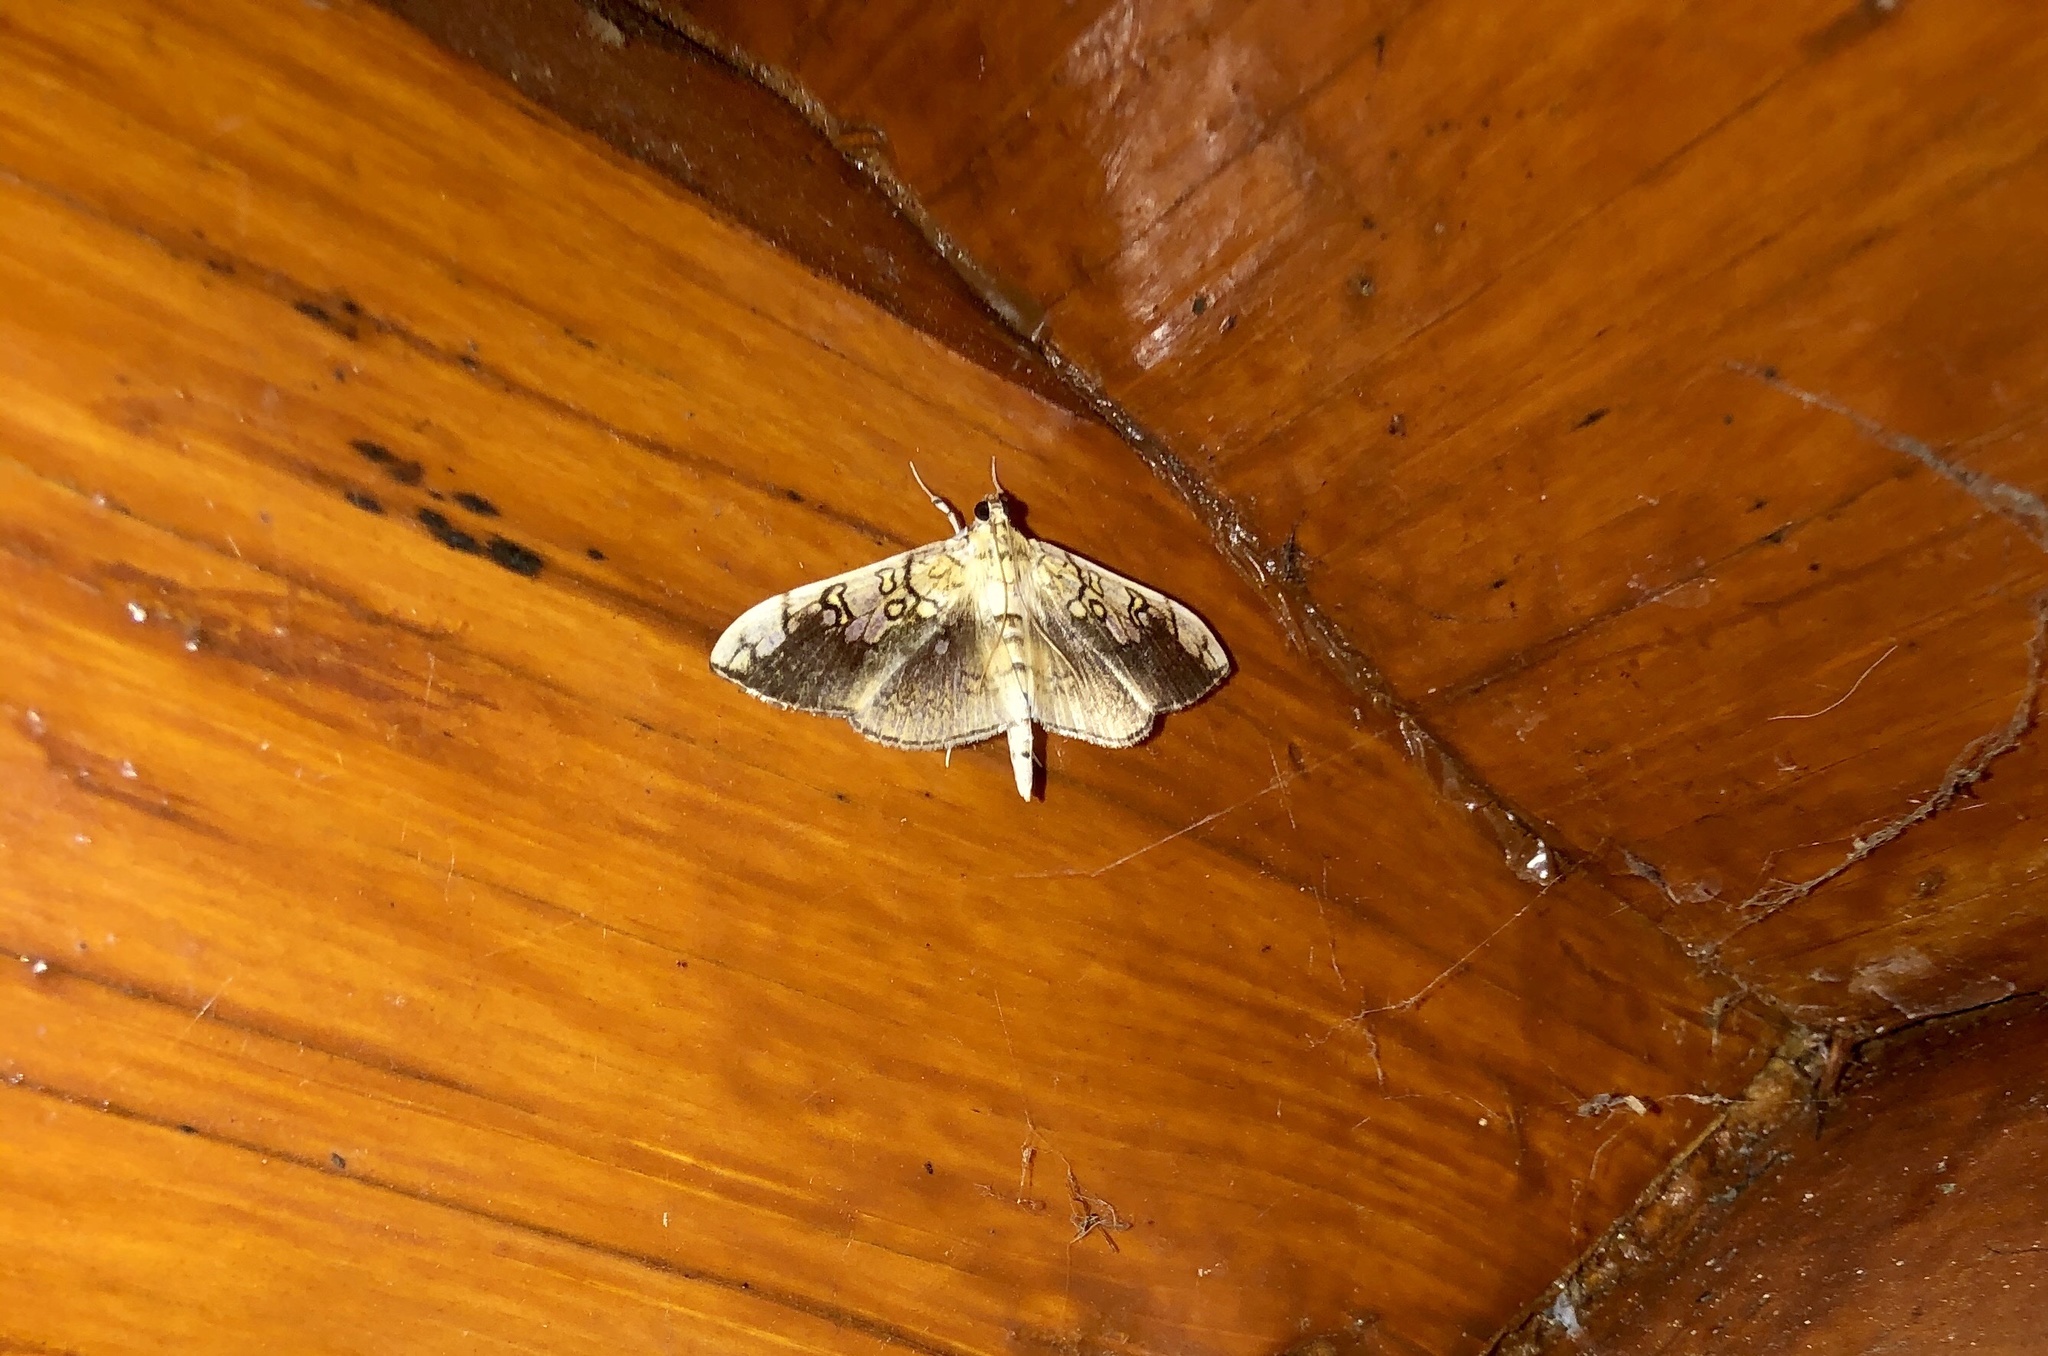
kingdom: Animalia
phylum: Arthropoda
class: Insecta
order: Lepidoptera
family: Crambidae
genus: Pantographa
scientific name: Pantographa limata
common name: Basswood leafroller moth
